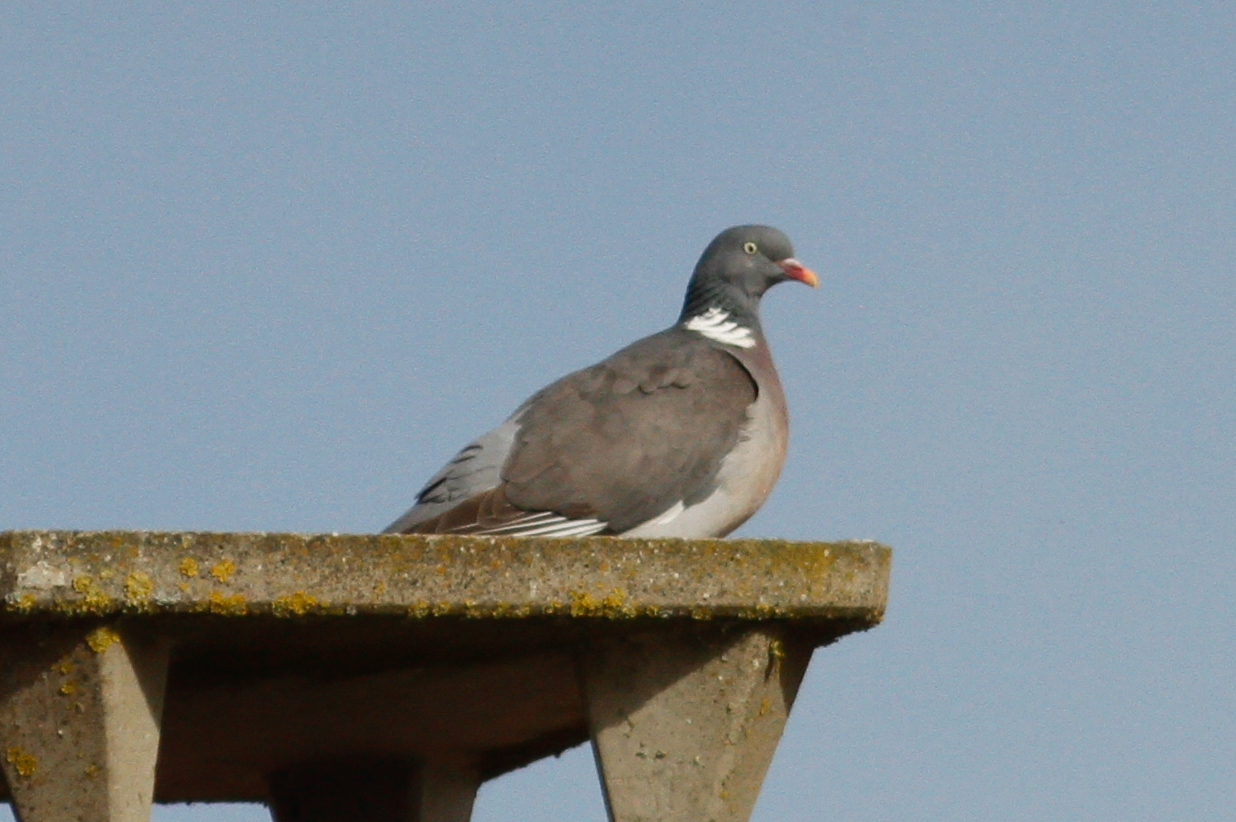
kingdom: Animalia
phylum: Chordata
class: Aves
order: Columbiformes
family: Columbidae
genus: Columba
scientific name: Columba palumbus
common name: Common wood pigeon
